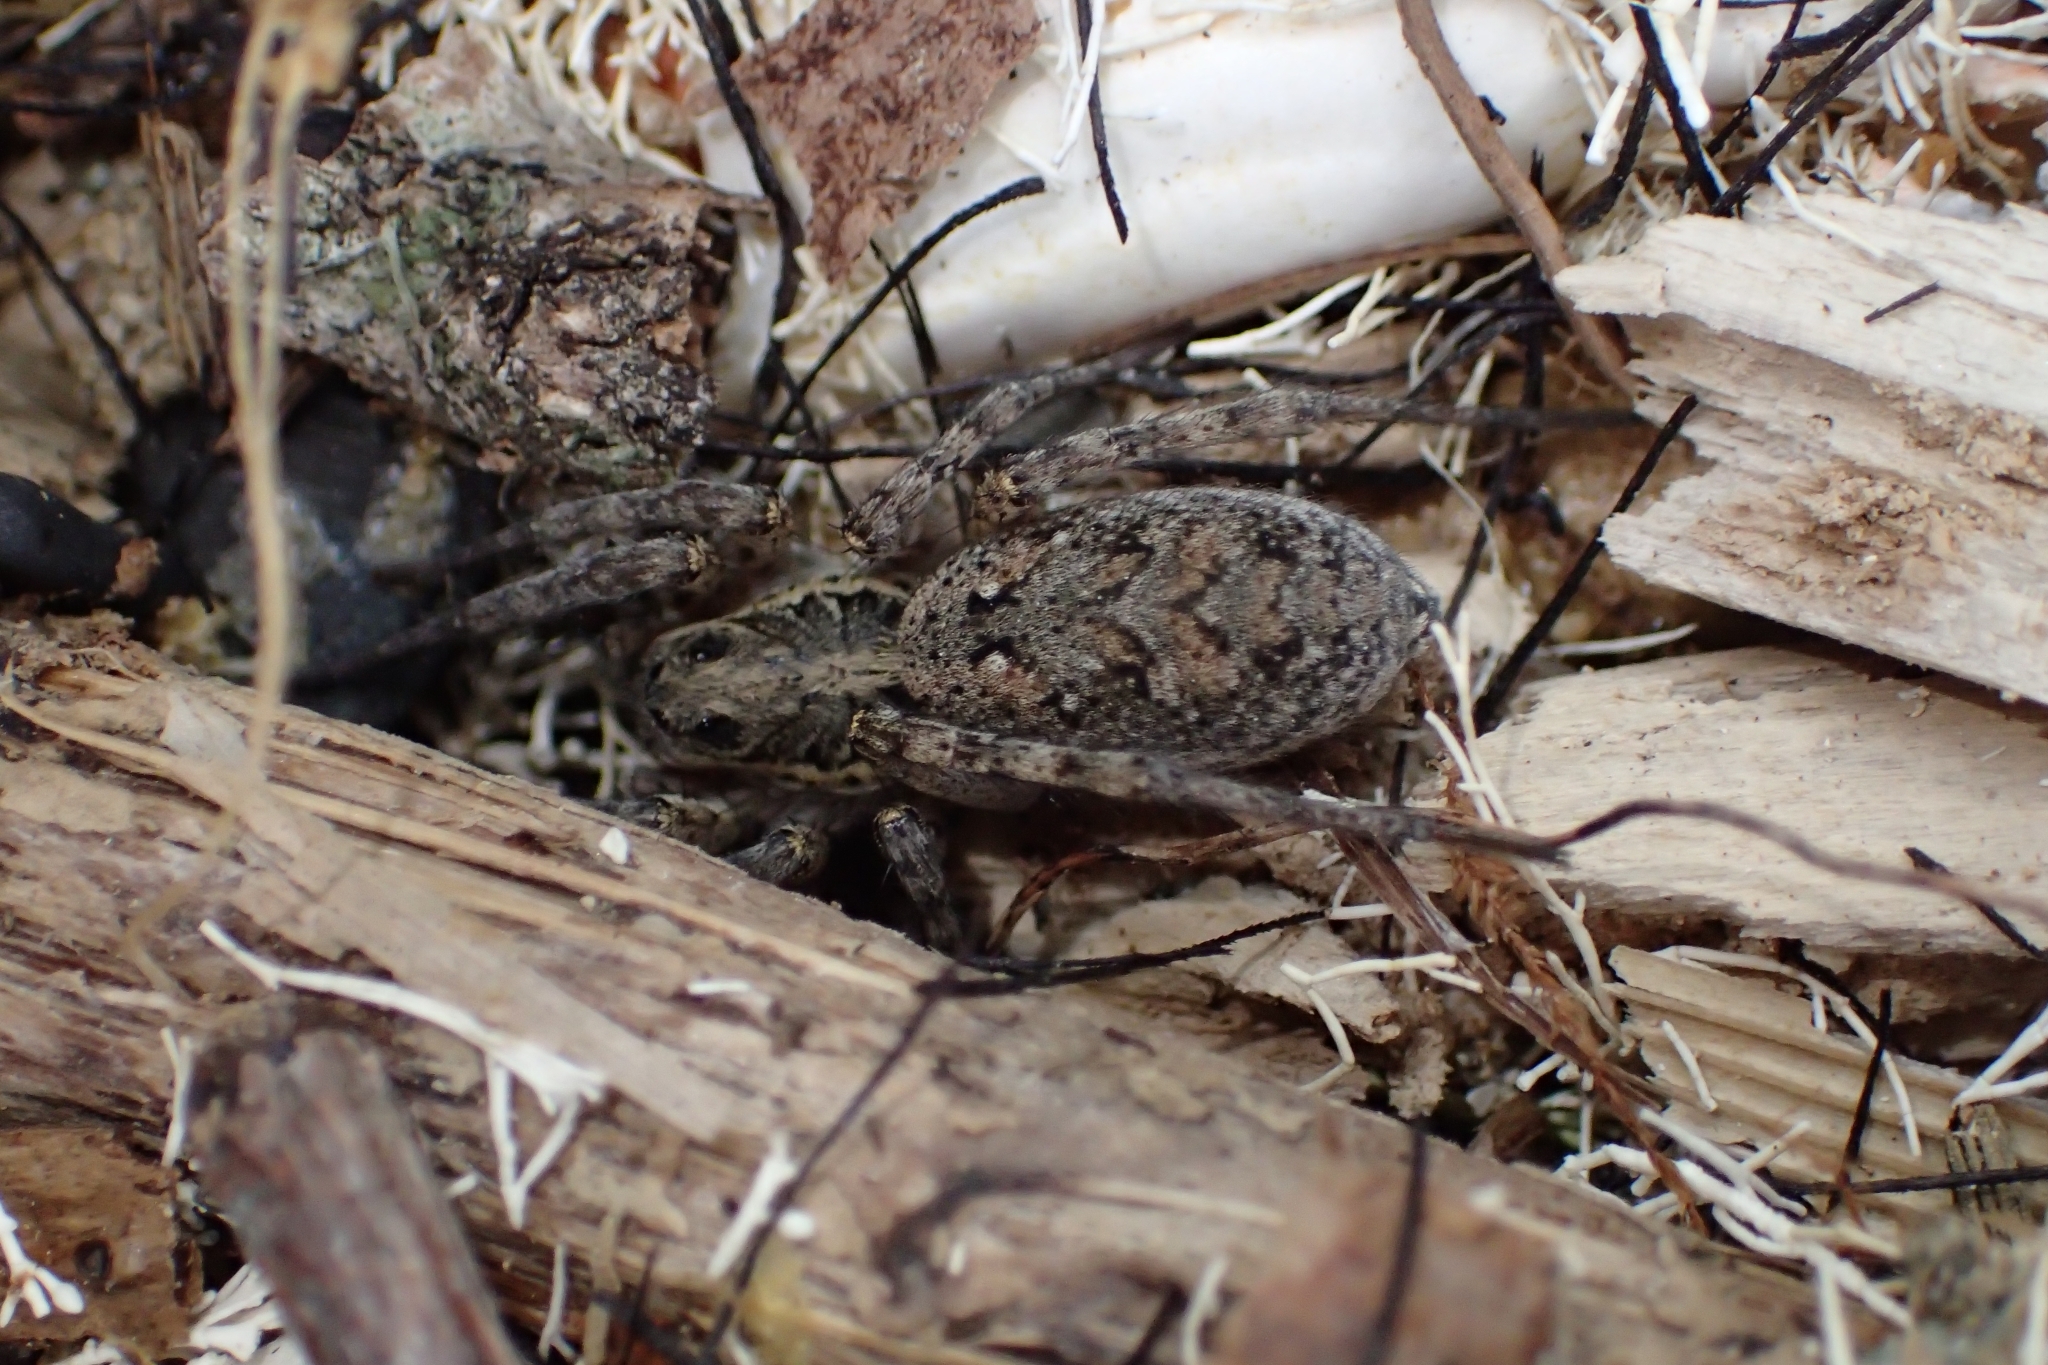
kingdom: Animalia
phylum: Arthropoda
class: Arachnida
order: Araneae
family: Lycosidae
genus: Hogna
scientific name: Hogna crispipes
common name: Wolf spider
